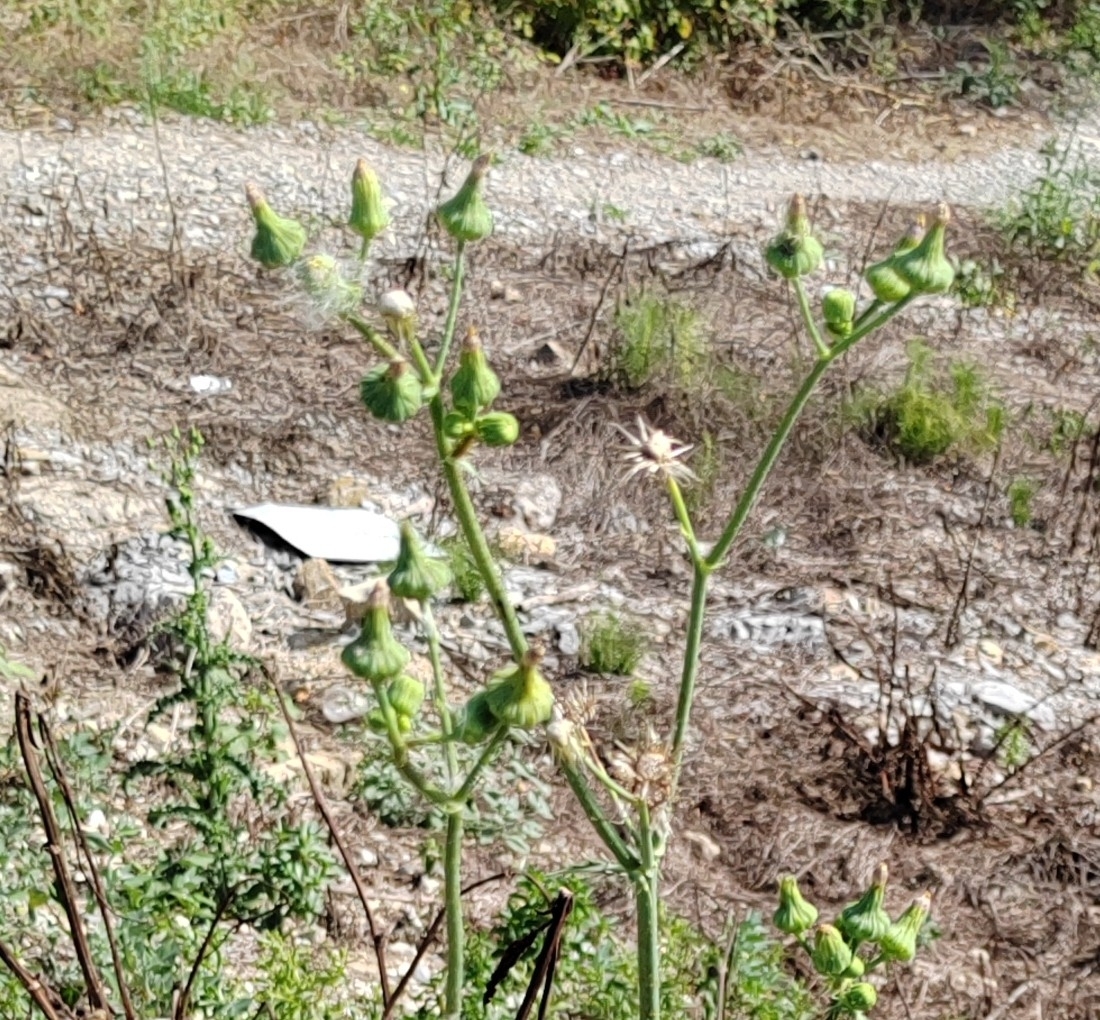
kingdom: Plantae
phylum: Tracheophyta
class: Magnoliopsida
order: Asterales
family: Asteraceae
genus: Sonchus
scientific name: Sonchus asper
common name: Prickly sow-thistle
